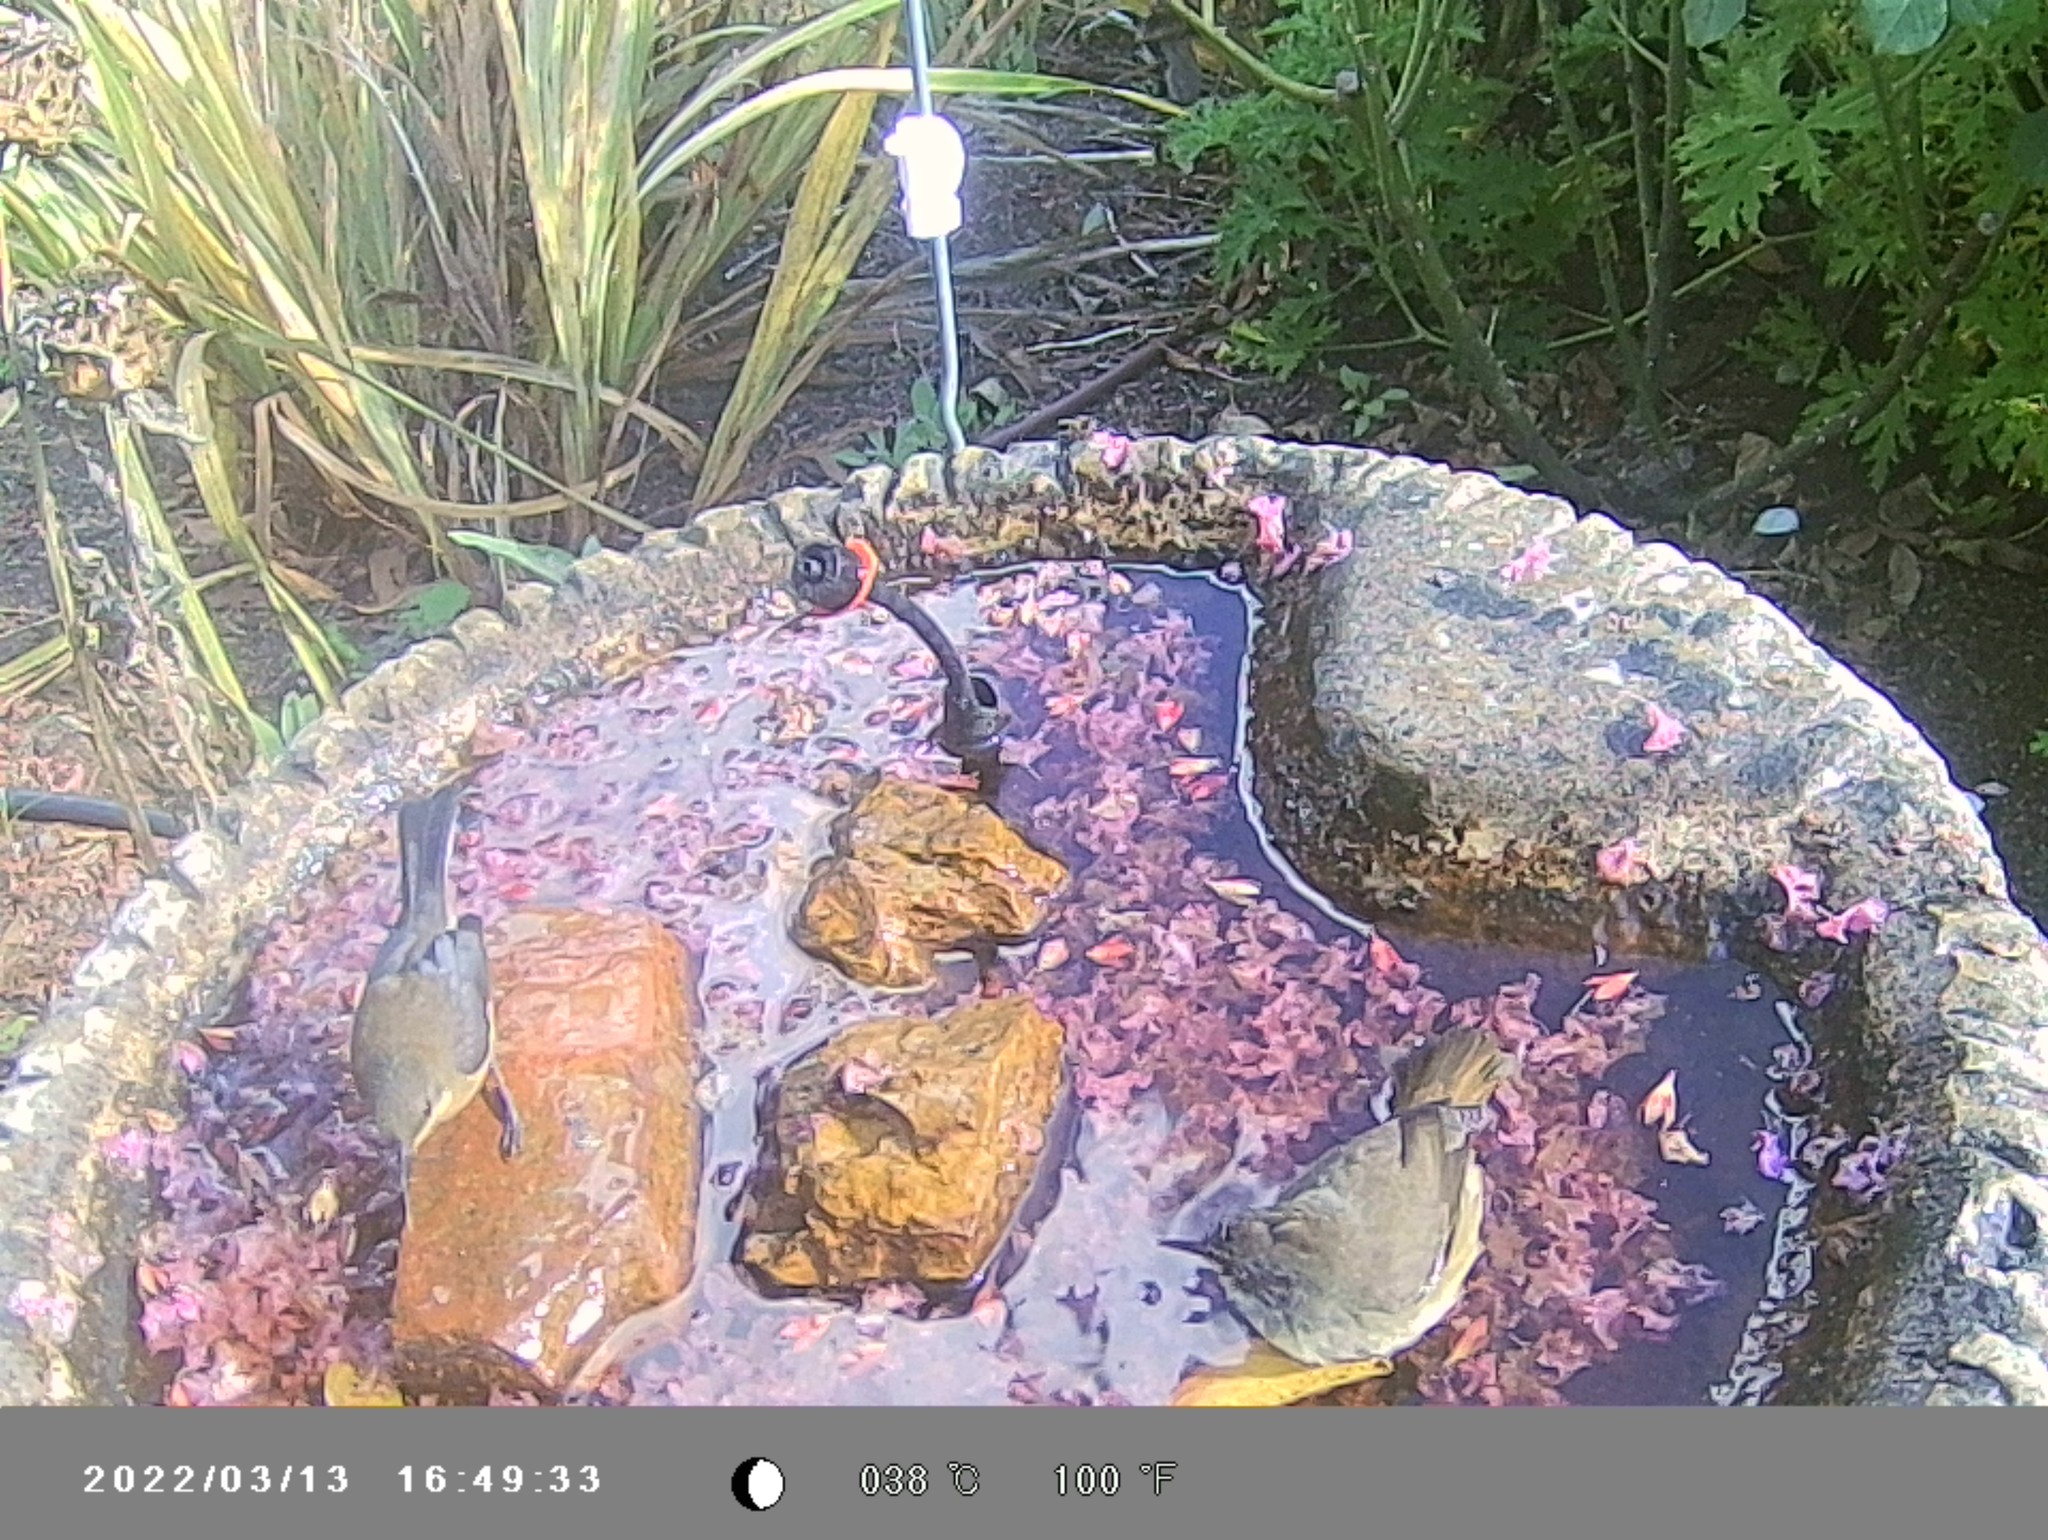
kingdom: Animalia
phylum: Chordata
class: Aves
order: Passeriformes
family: Meliphagidae
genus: Acanthorhynchus
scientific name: Acanthorhynchus tenuirostris
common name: Eastern spinebill
